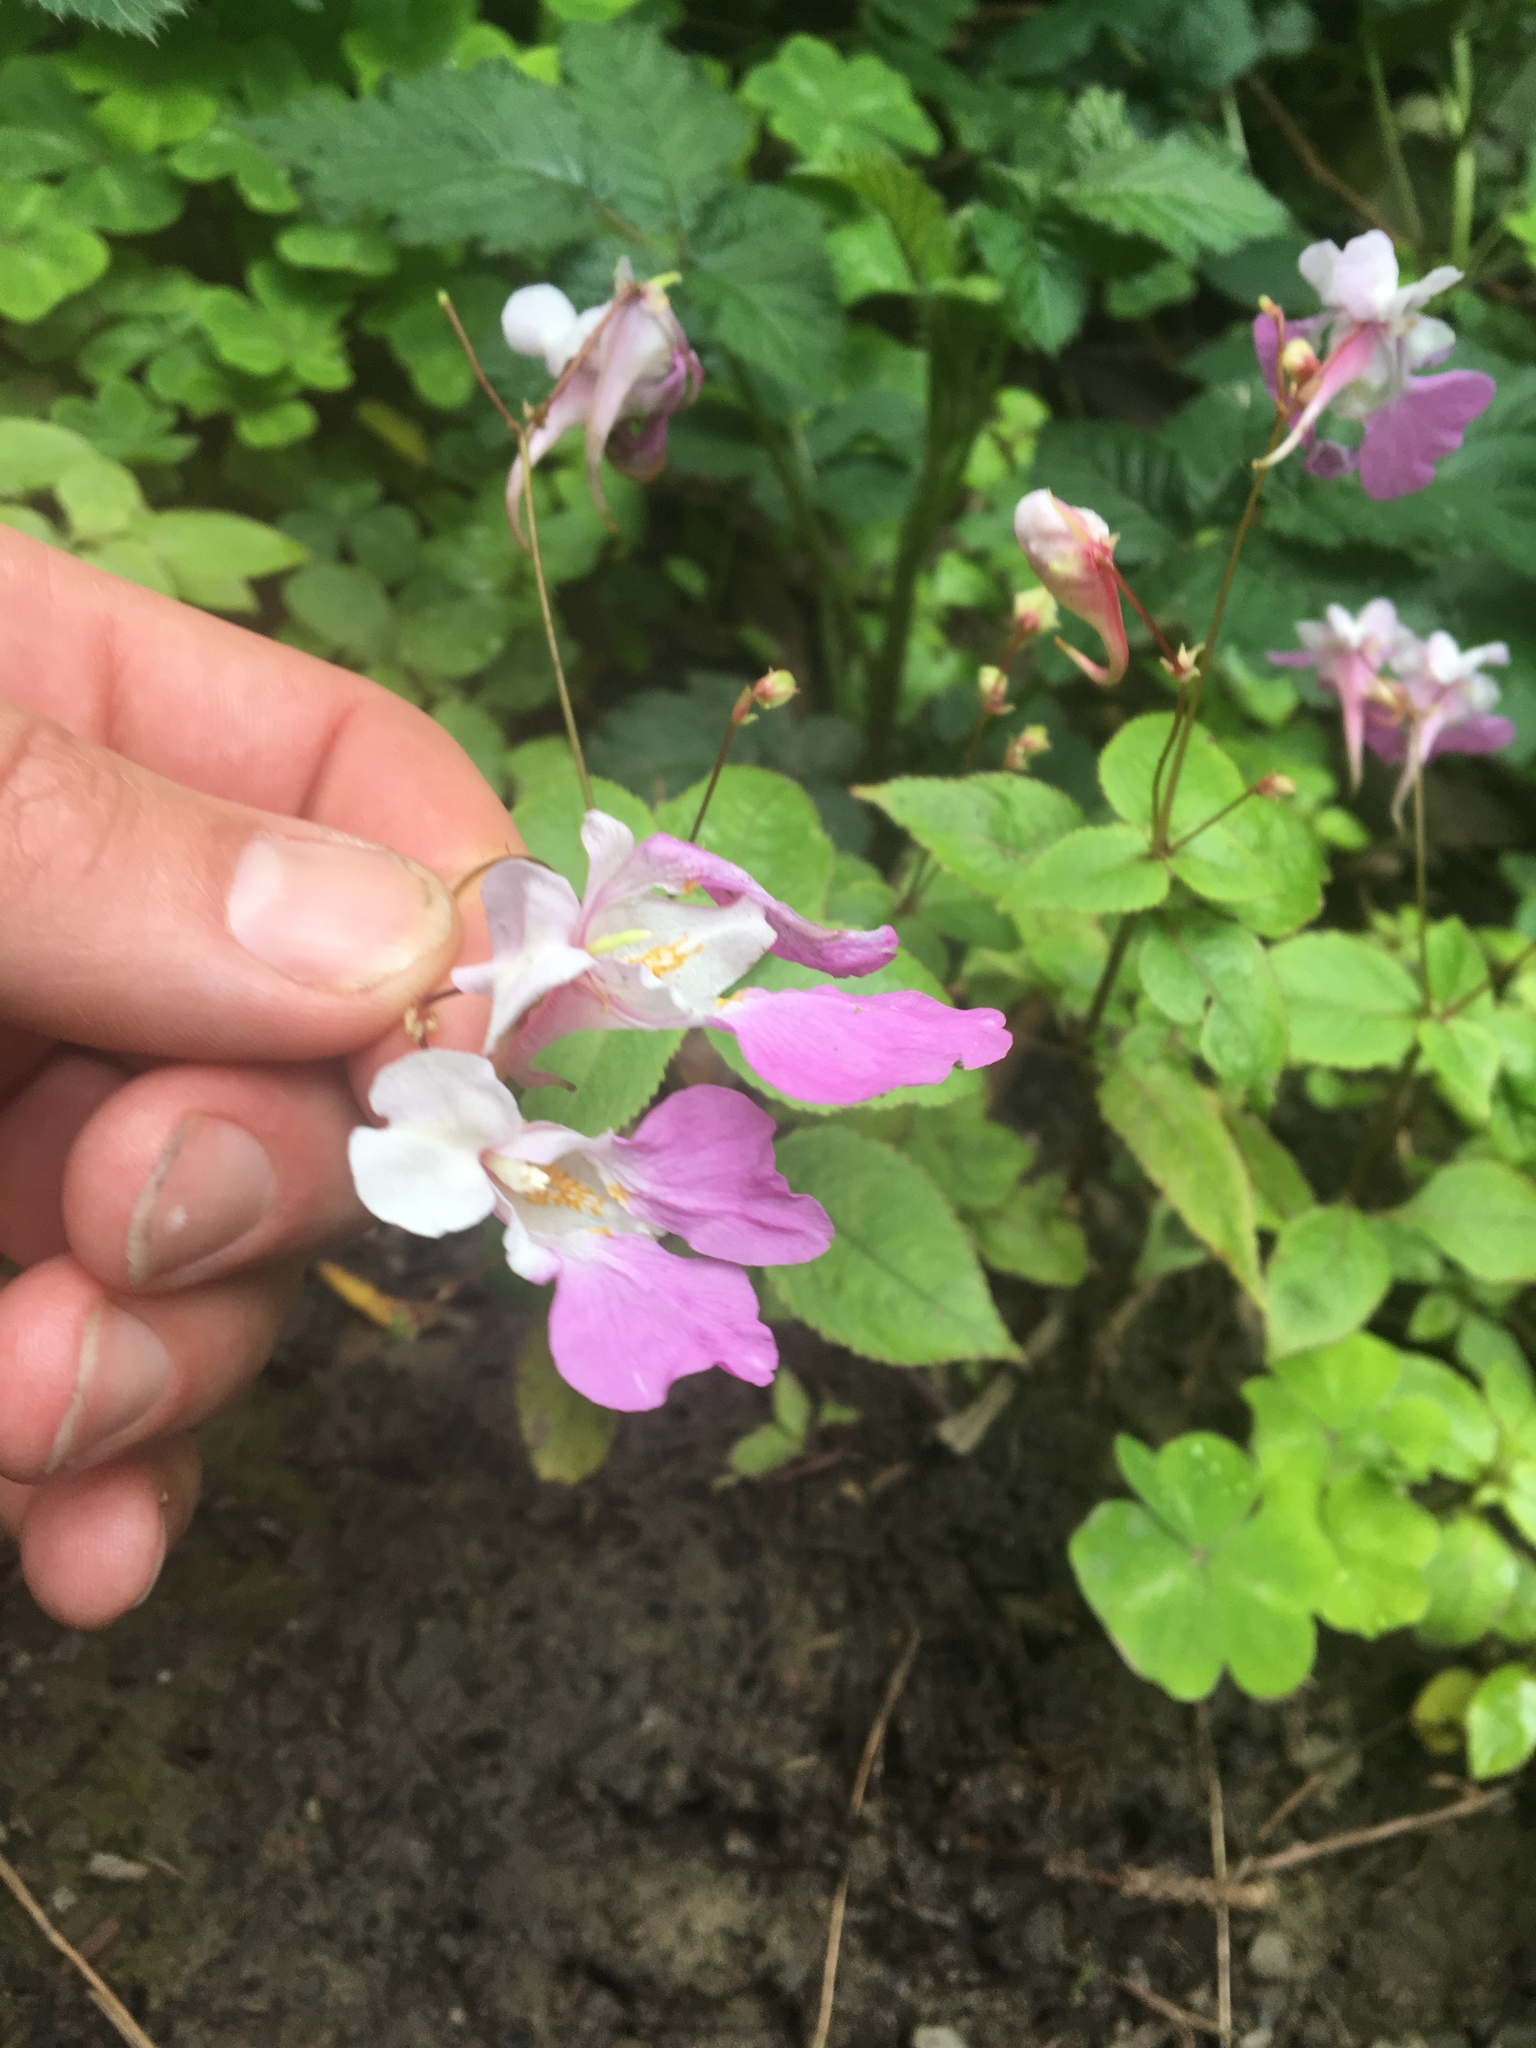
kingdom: Plantae
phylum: Tracheophyta
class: Magnoliopsida
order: Ericales
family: Balsaminaceae
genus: Impatiens
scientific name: Impatiens balfourii
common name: Balfour's touch-me-not
